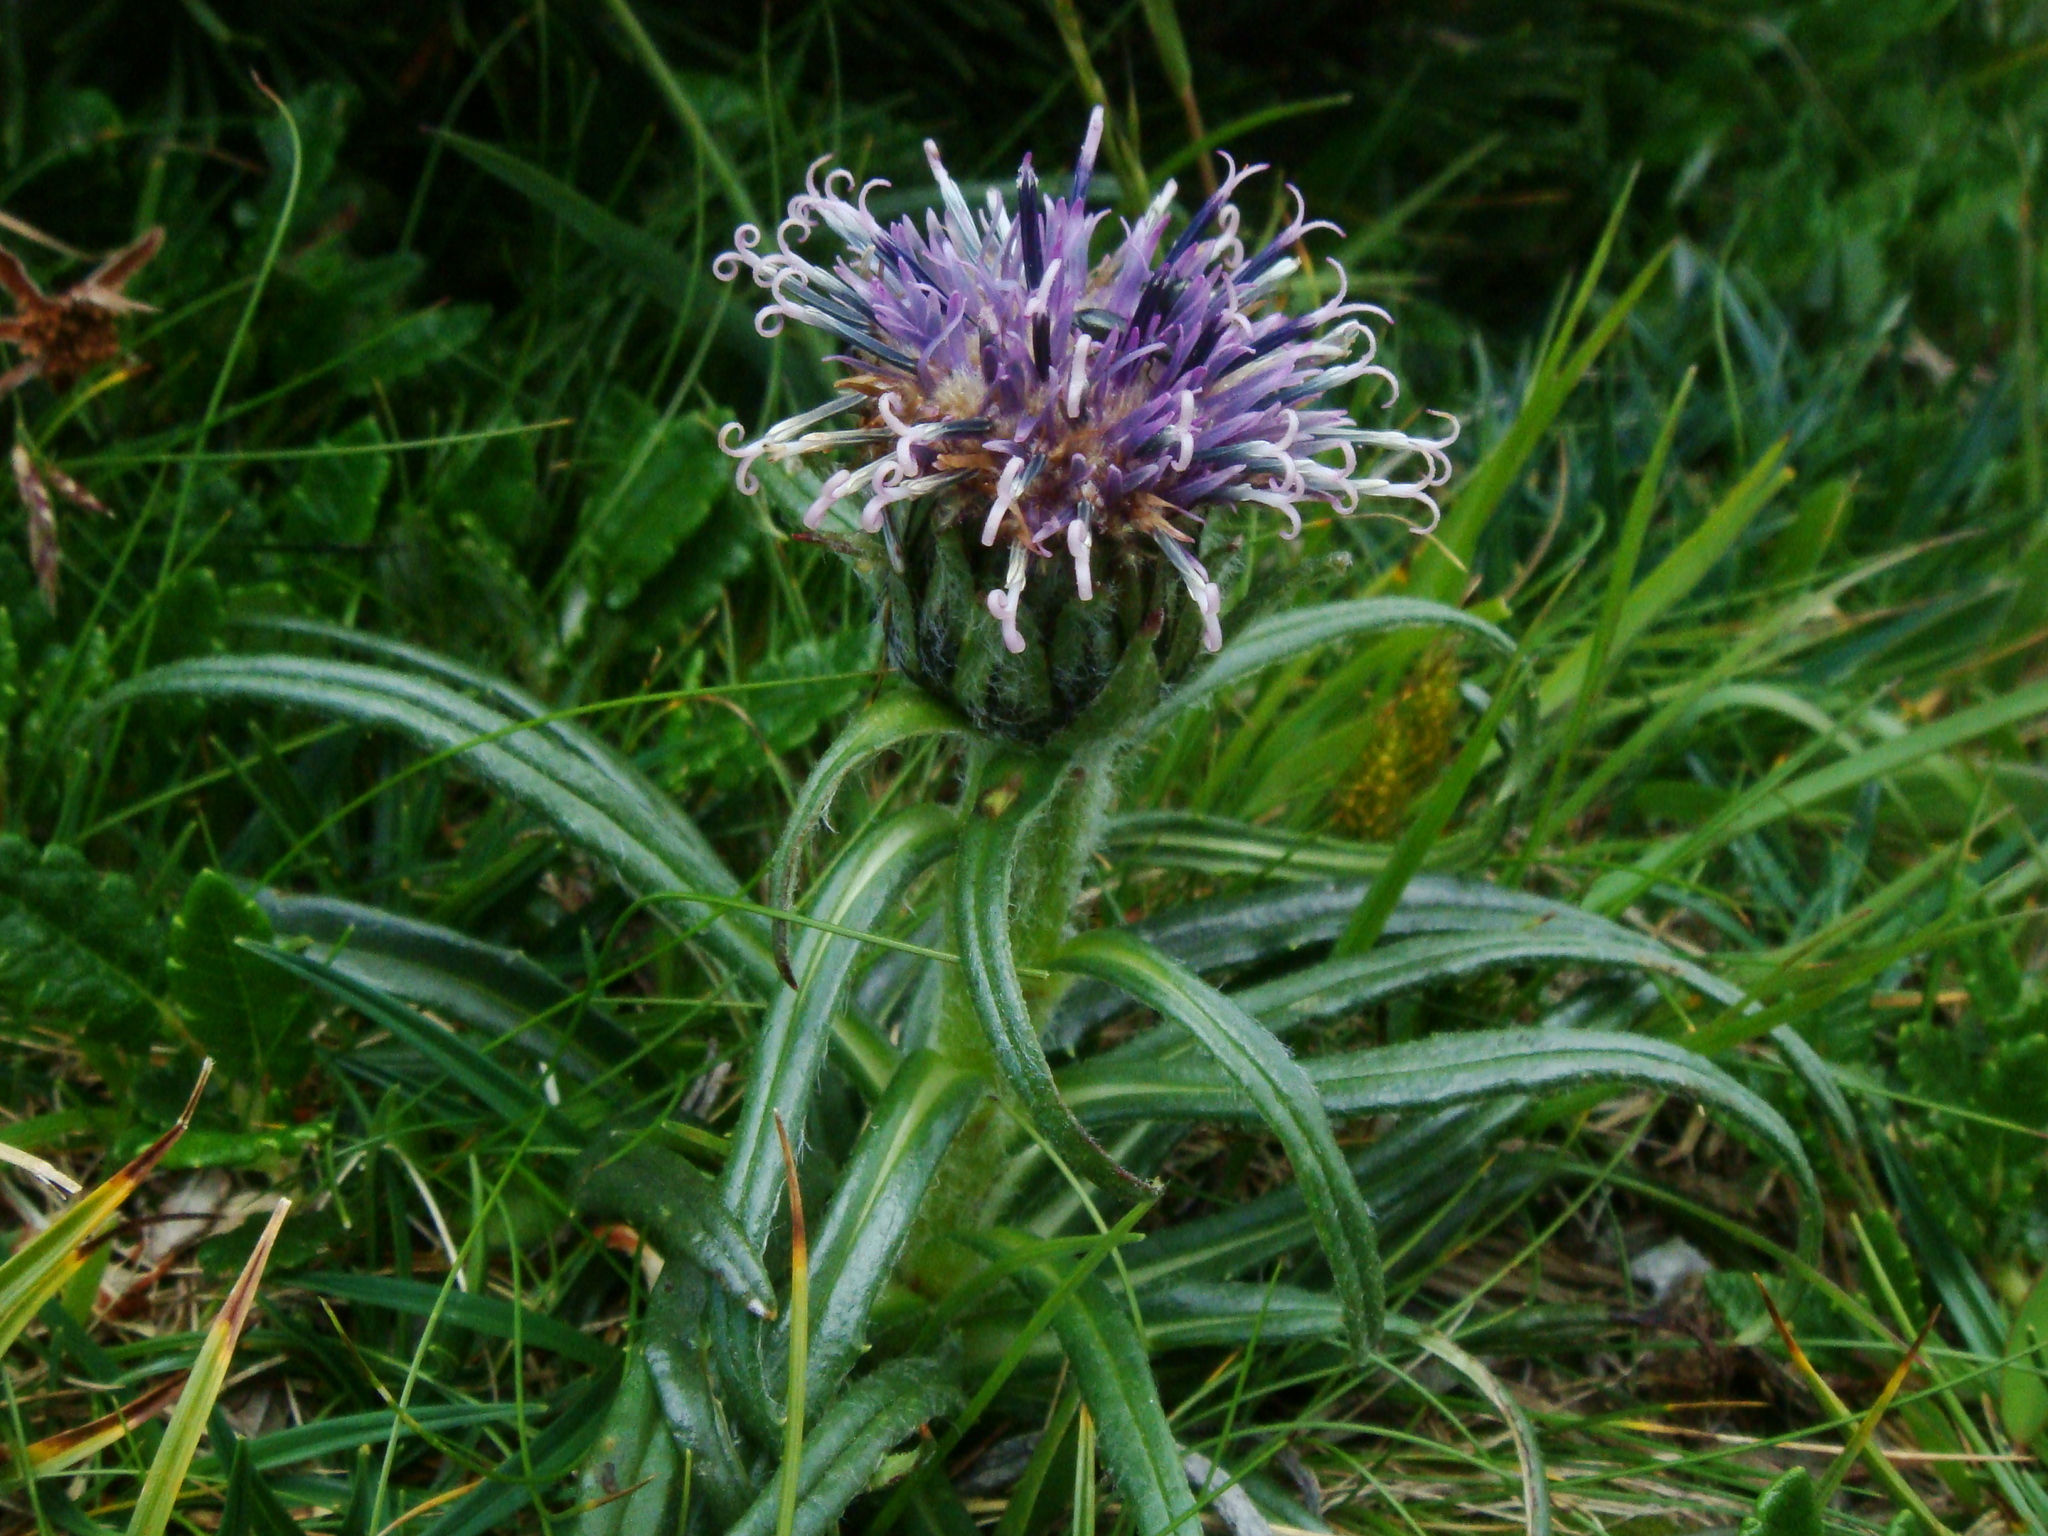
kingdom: Plantae
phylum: Tracheophyta
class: Magnoliopsida
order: Asterales
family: Asteraceae
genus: Saussurea
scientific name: Saussurea pygmaea
